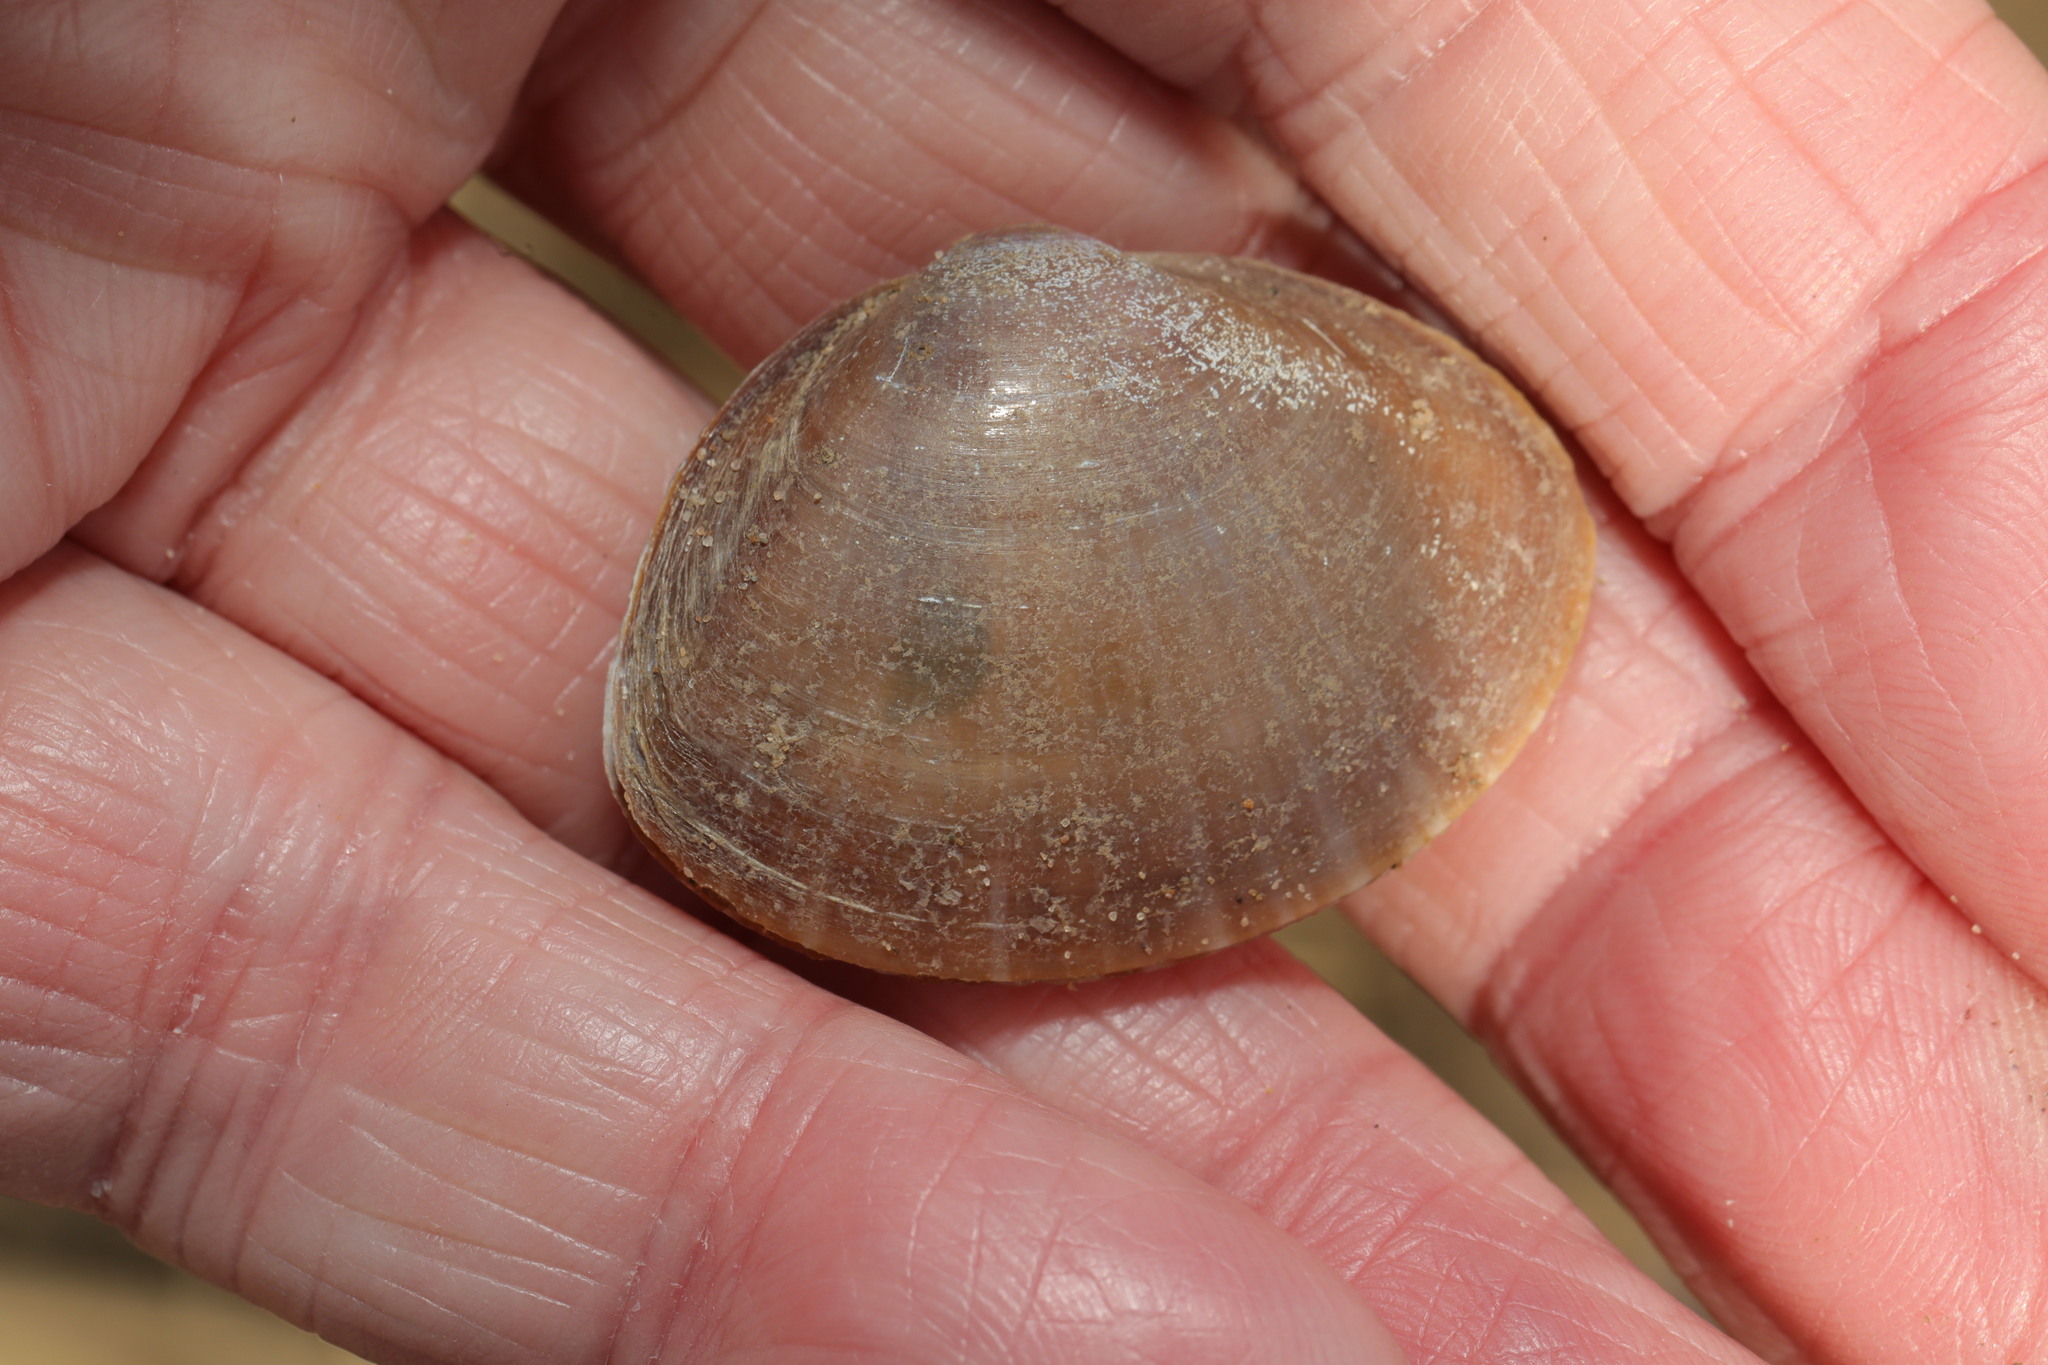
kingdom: Animalia
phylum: Mollusca
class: Bivalvia
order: Venerida
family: Mactridae
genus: Mactra
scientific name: Mactra stultorum
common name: Rayed trough shell
